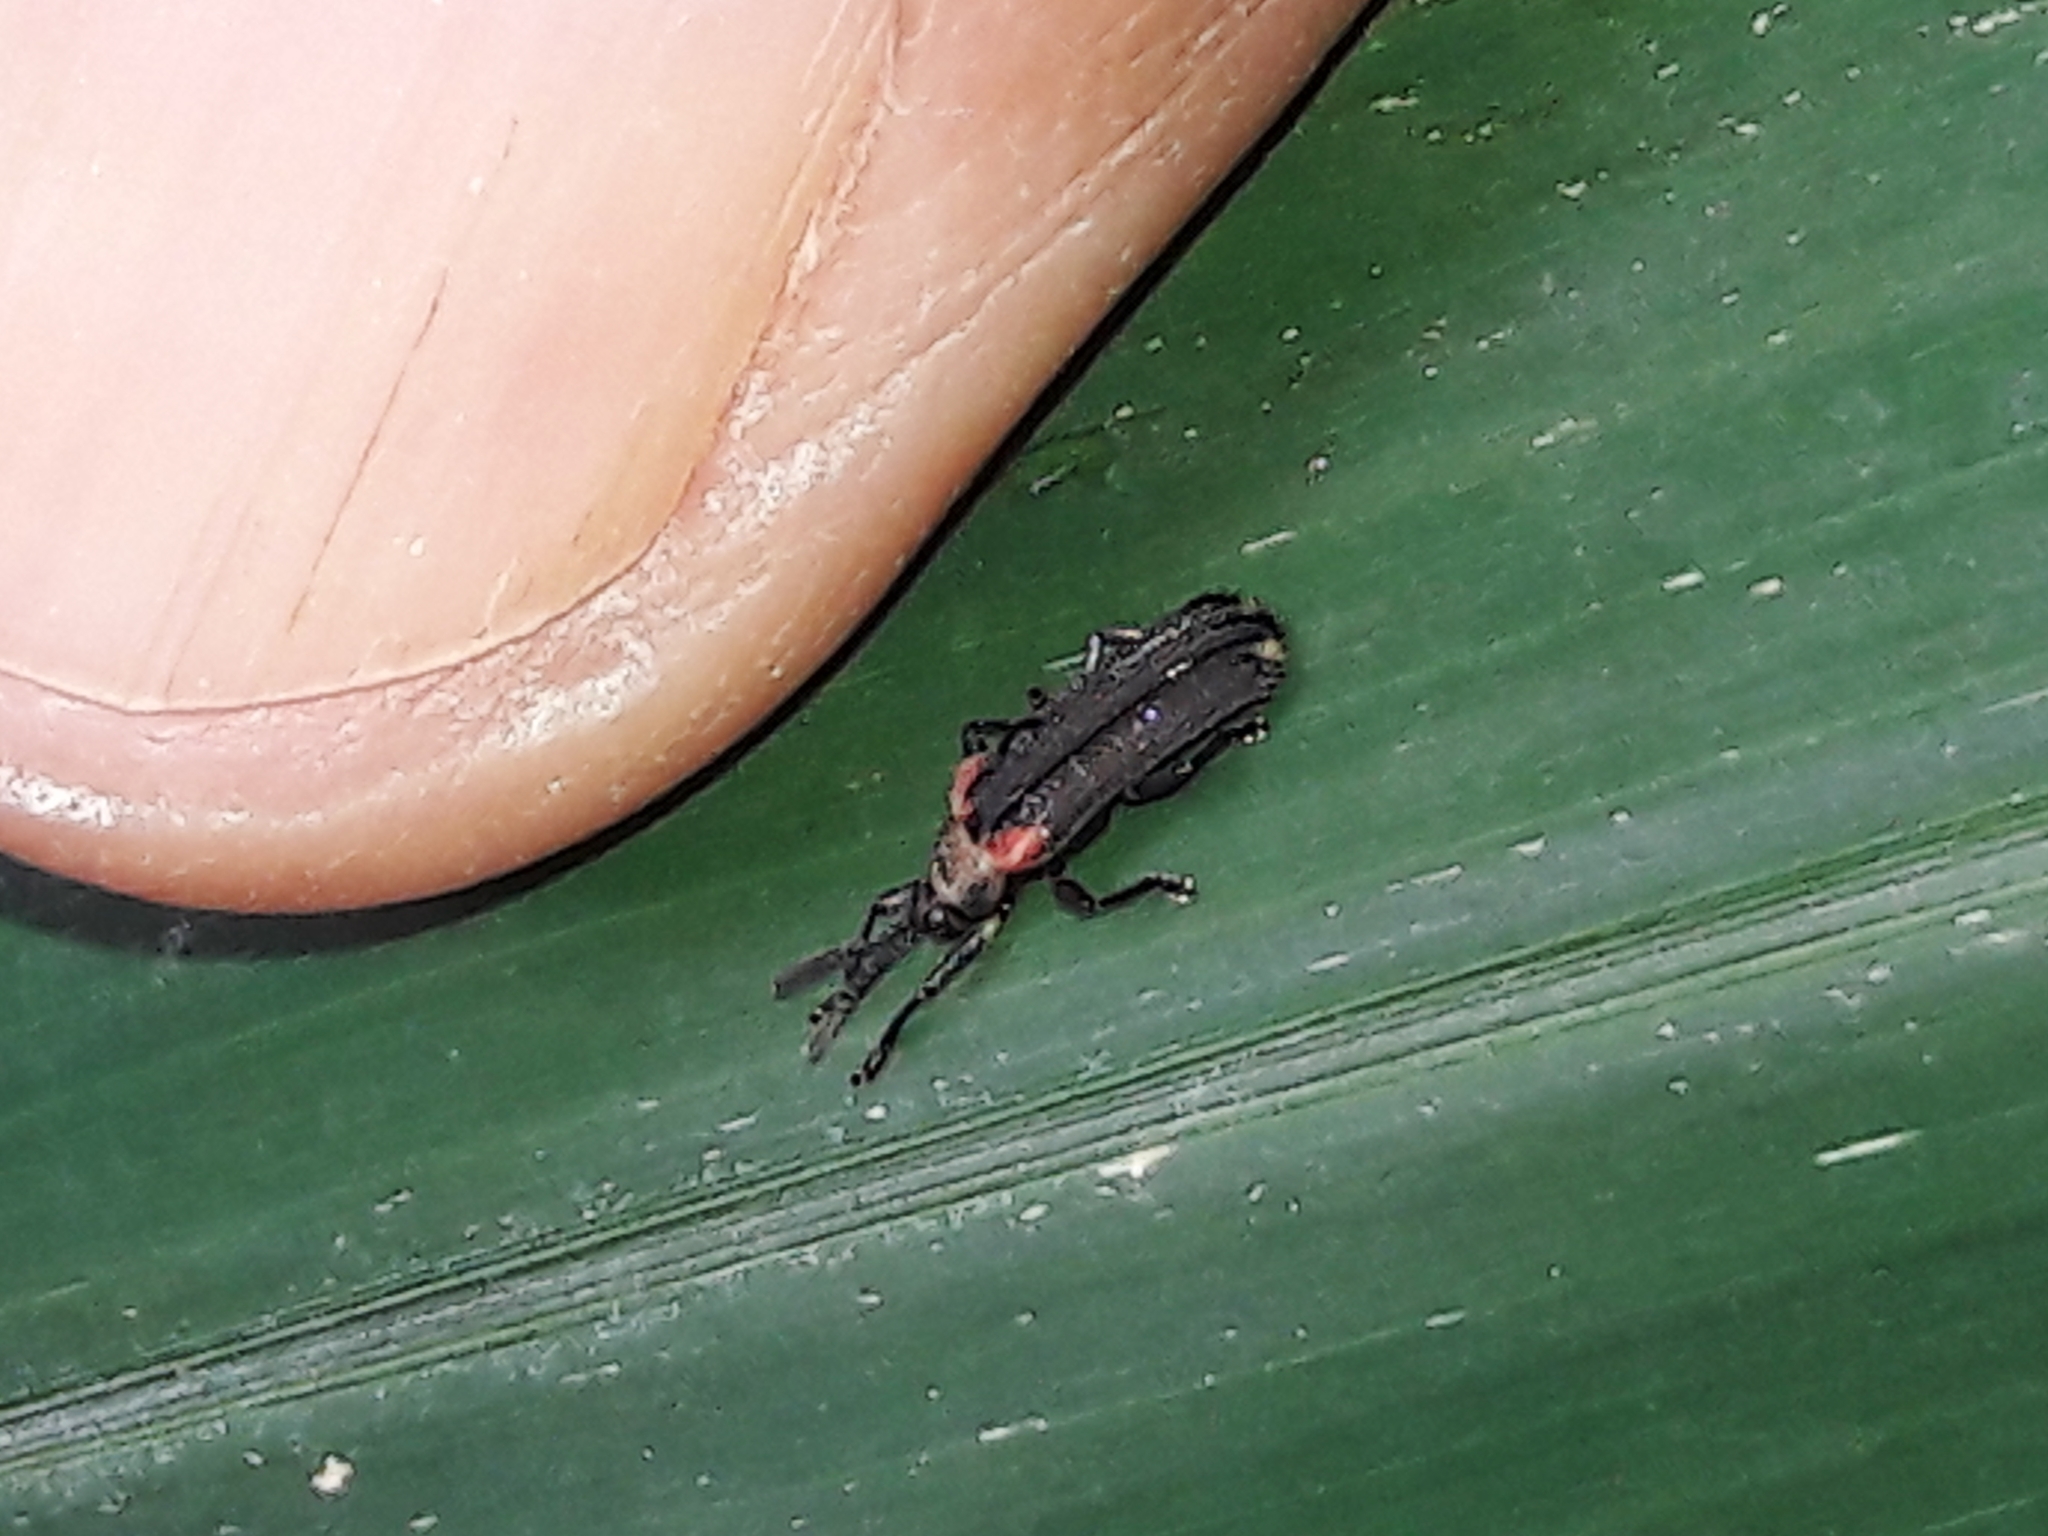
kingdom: Animalia
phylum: Arthropoda
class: Insecta
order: Coleoptera
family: Chrysomelidae
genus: Heterispa
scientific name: Heterispa vinula
